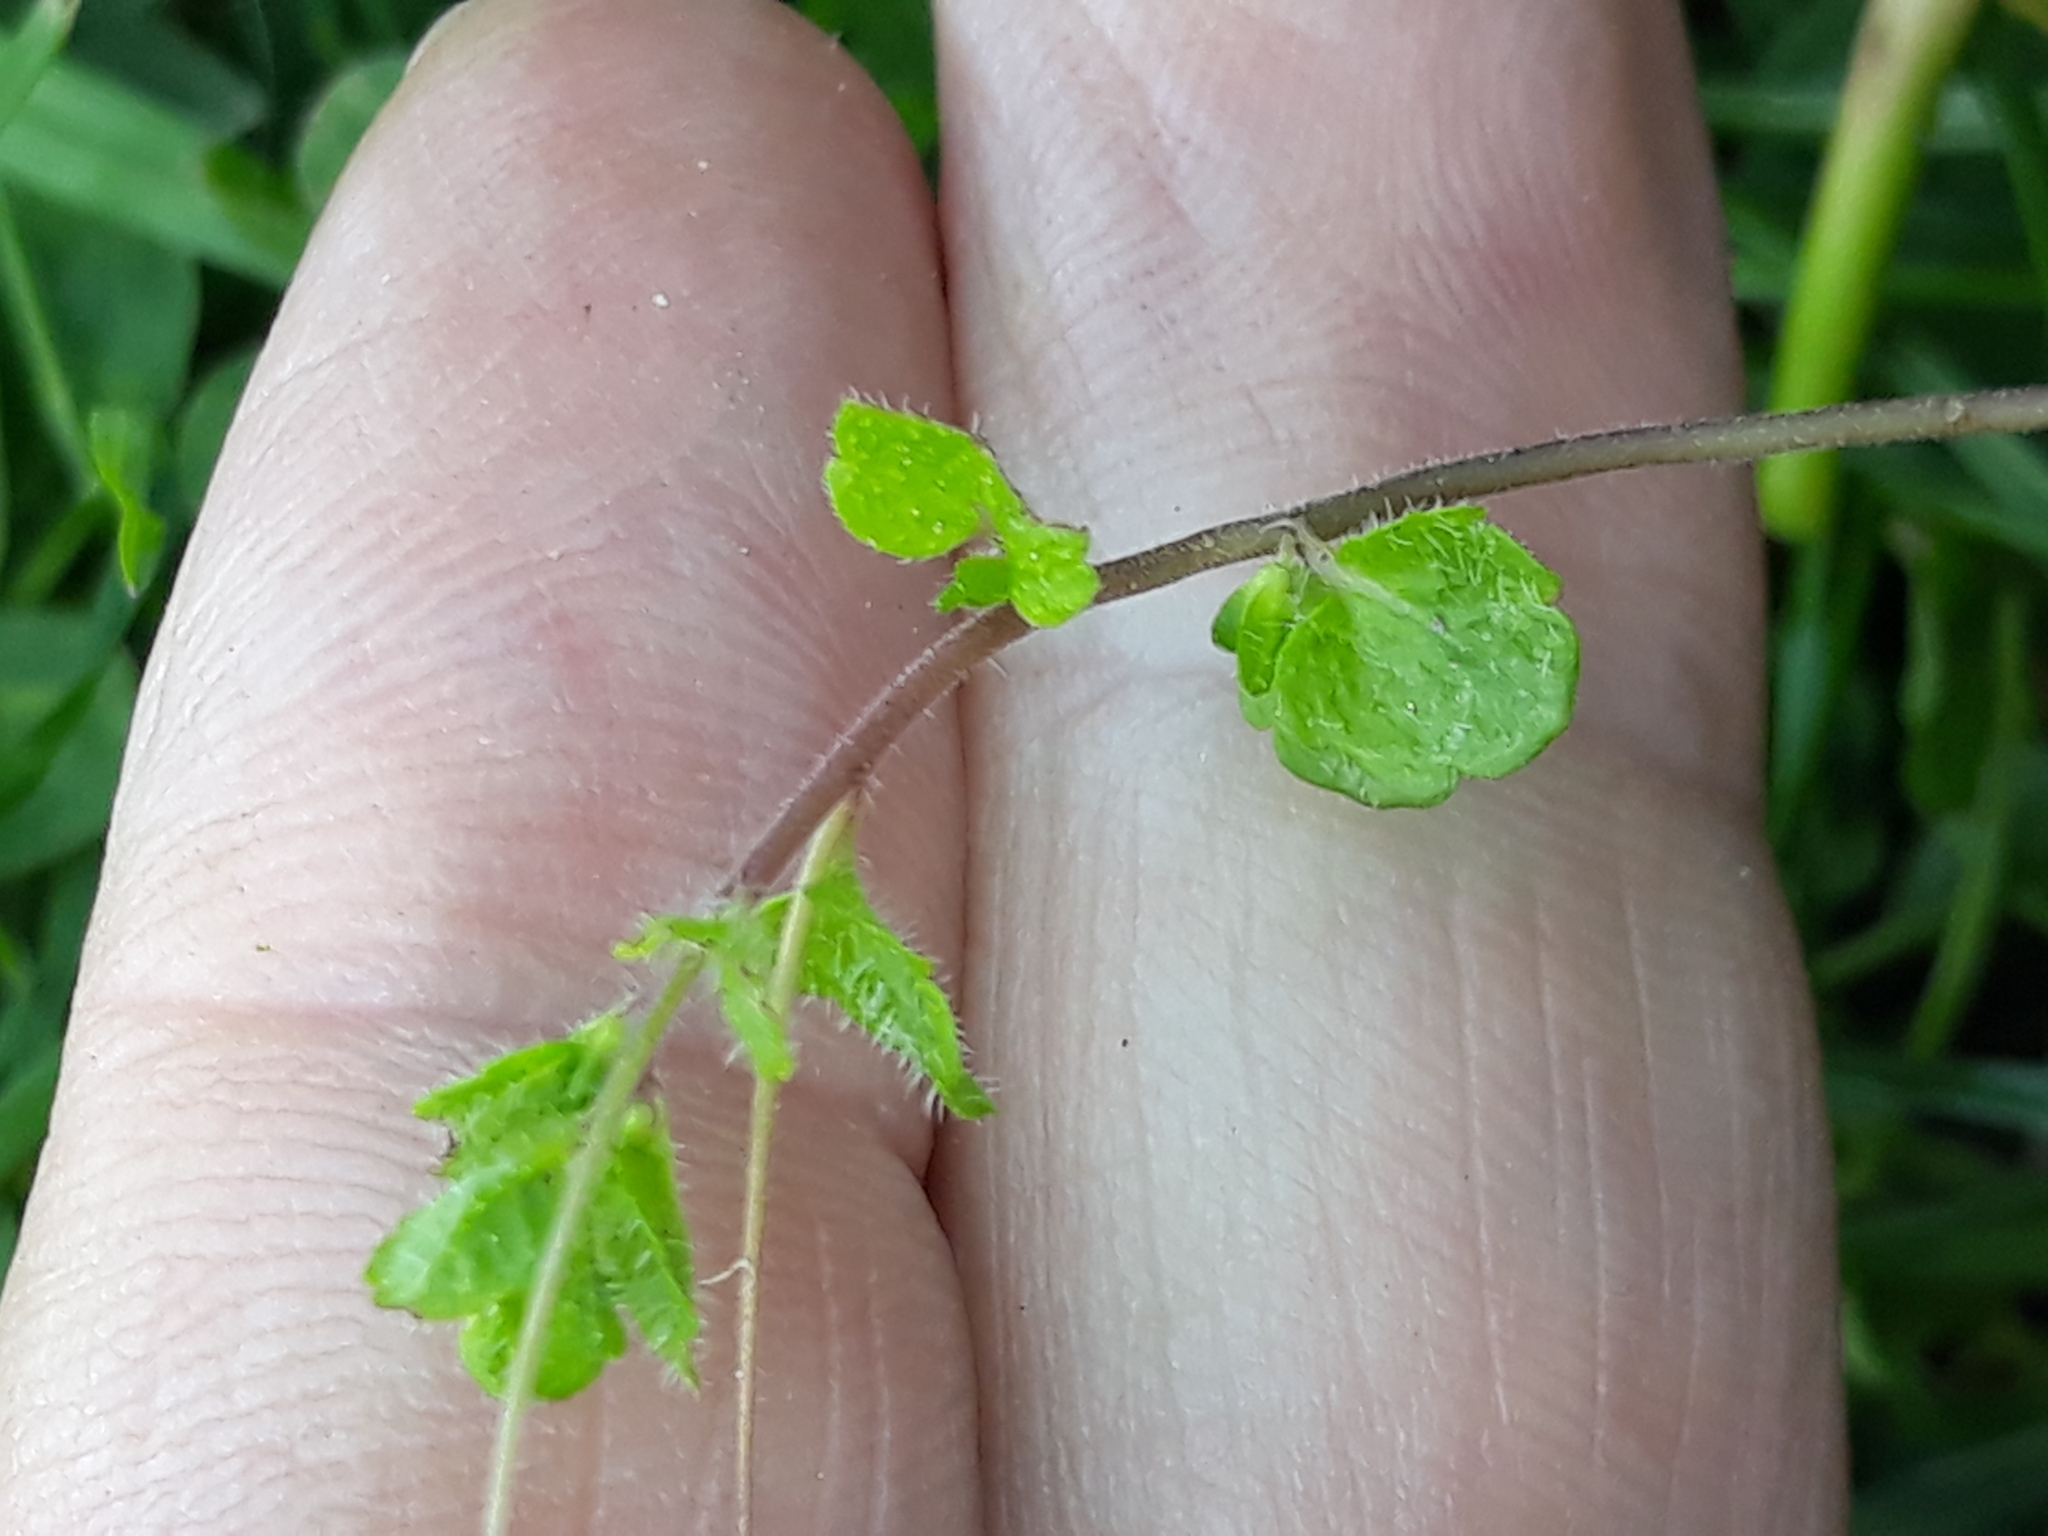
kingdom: Plantae
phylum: Tracheophyta
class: Magnoliopsida
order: Lamiales
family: Plantaginaceae
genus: Veronica
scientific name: Veronica filiformis
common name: Slender speedwell
